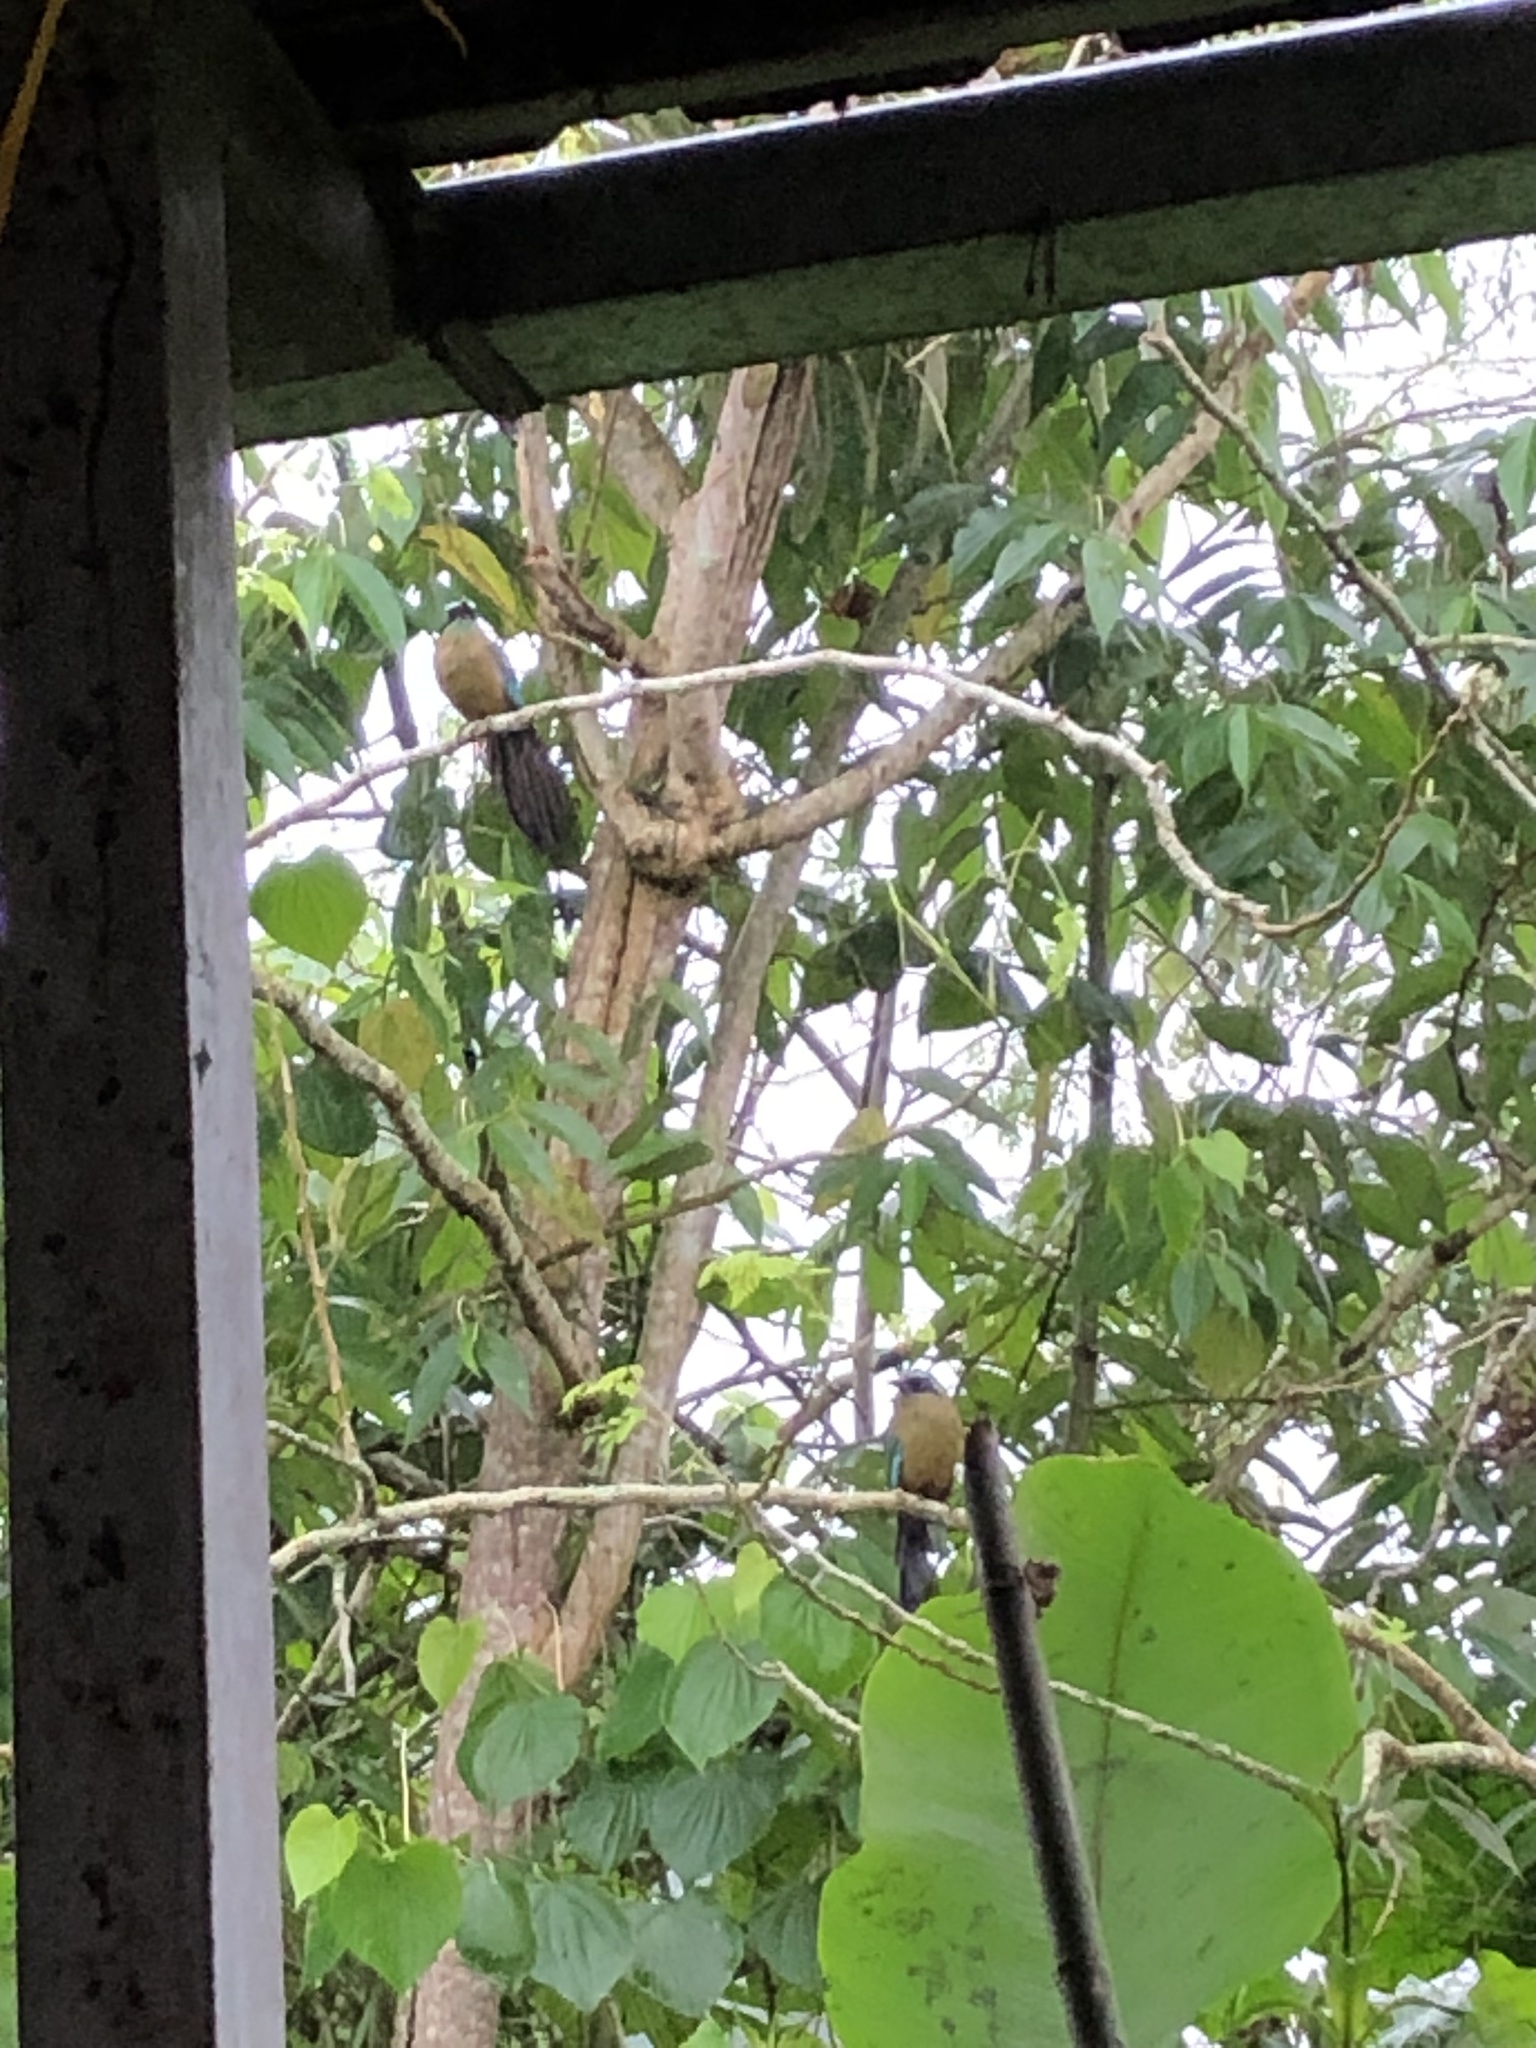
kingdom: Animalia
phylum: Chordata
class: Aves
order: Coraciiformes
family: Momotidae
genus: Momotus
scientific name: Momotus subrufescens
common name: Whooping motmot
